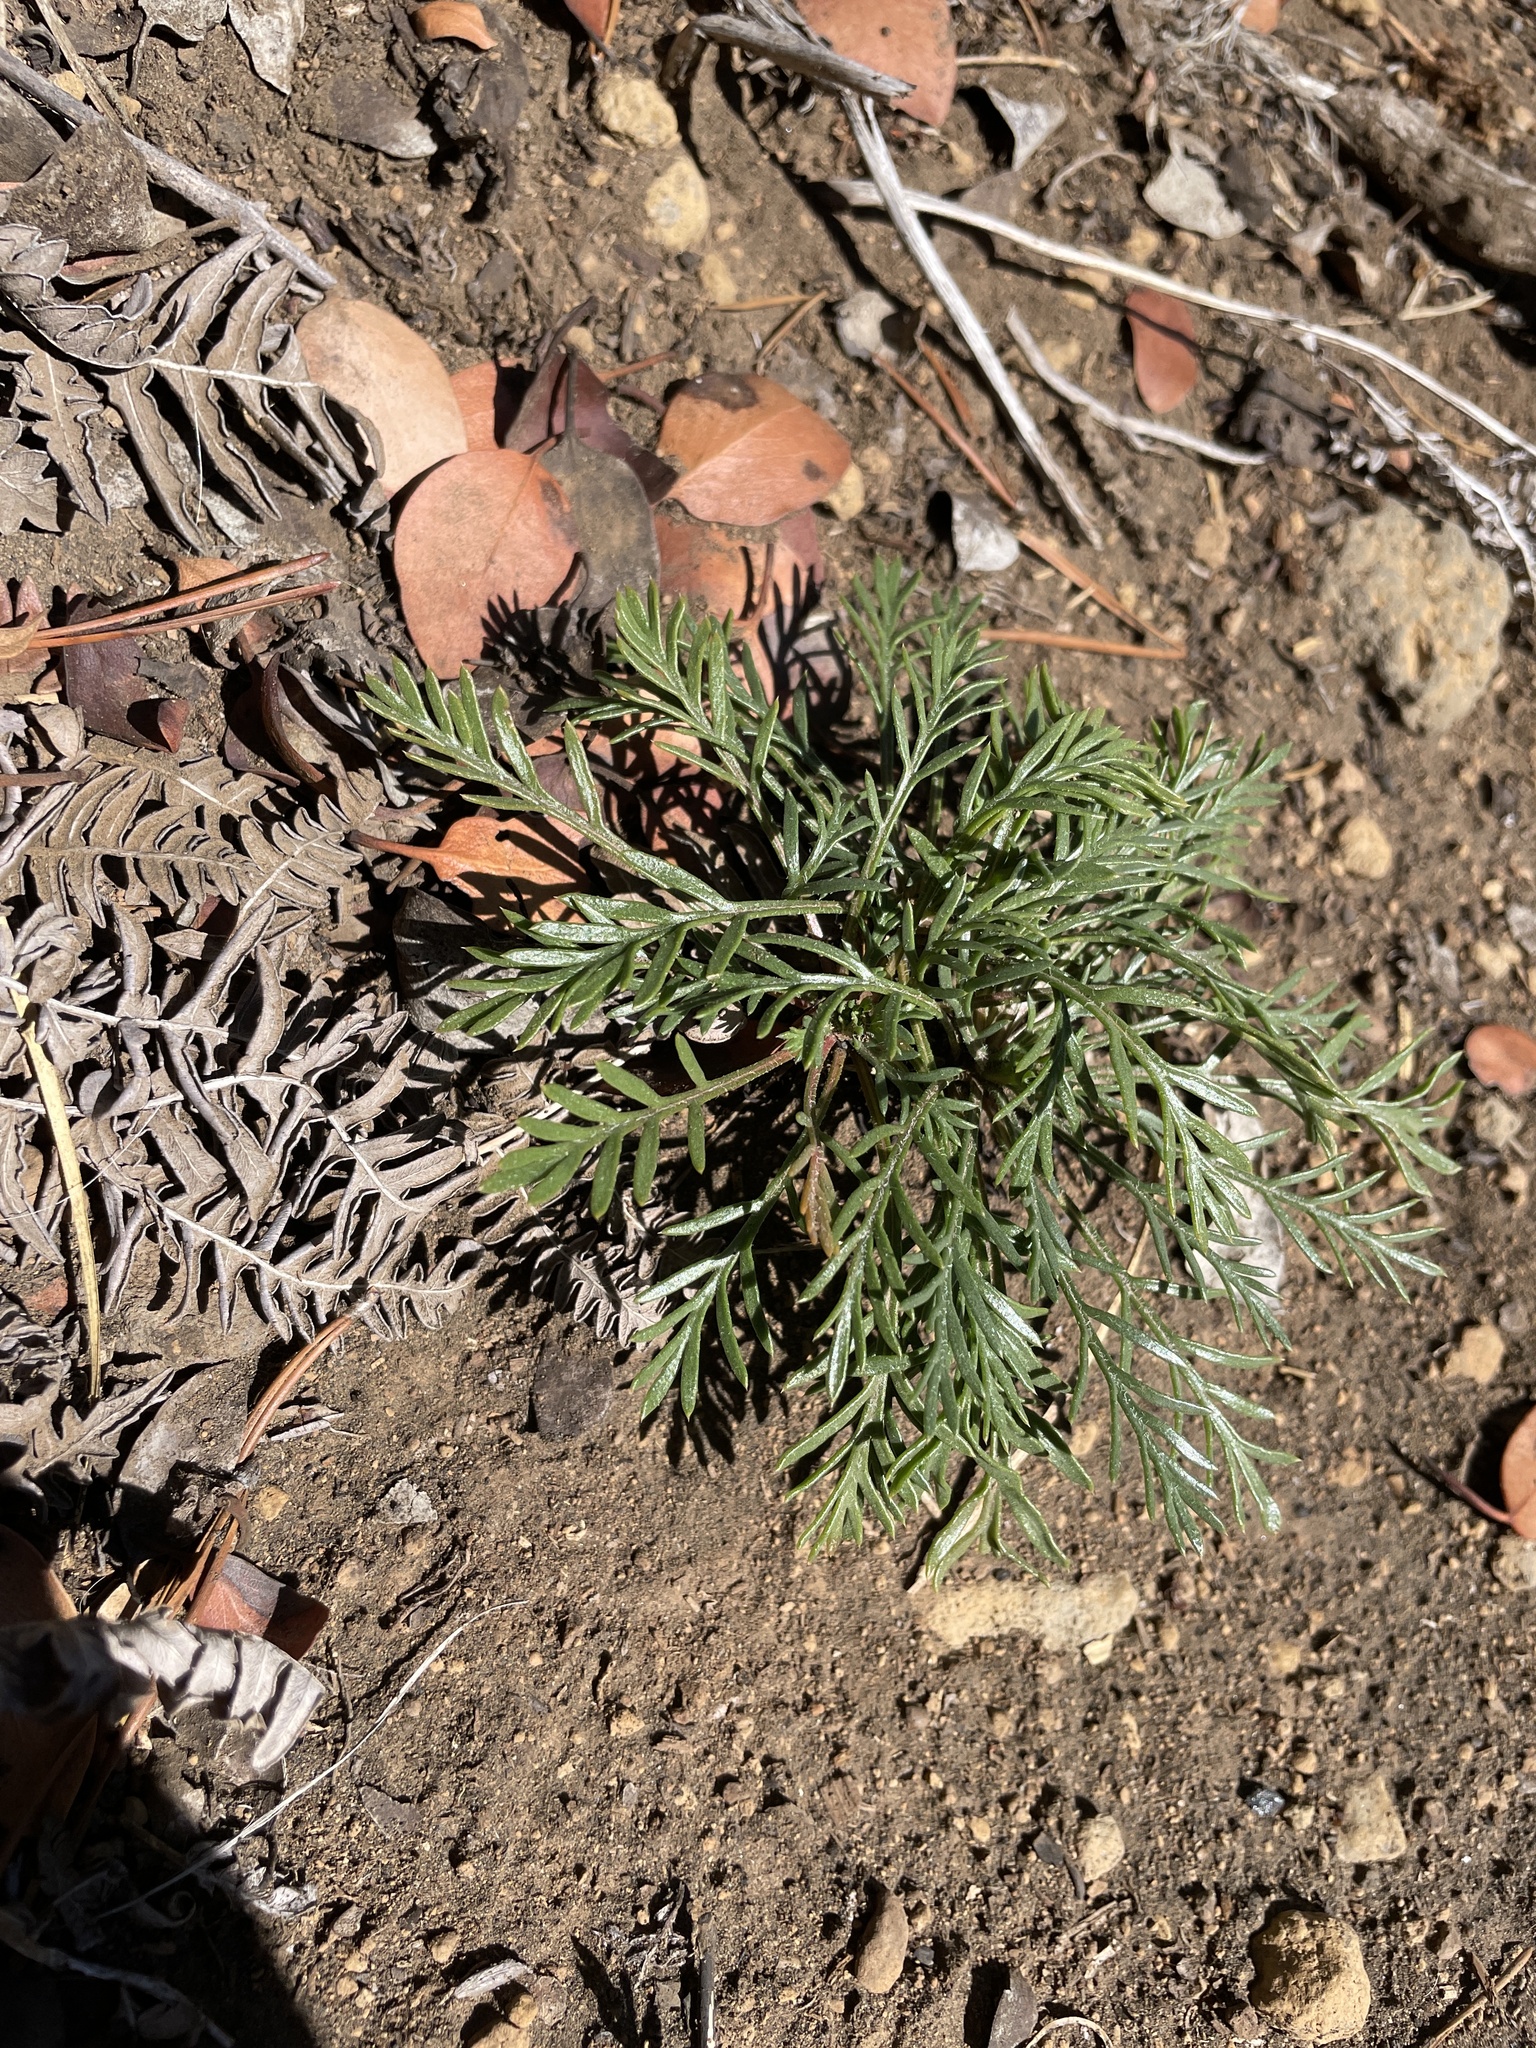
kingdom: Plantae
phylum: Tracheophyta
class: Magnoliopsida
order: Ericales
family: Polemoniaceae
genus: Ipomopsis
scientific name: Ipomopsis aggregata
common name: Scarlet gilia
